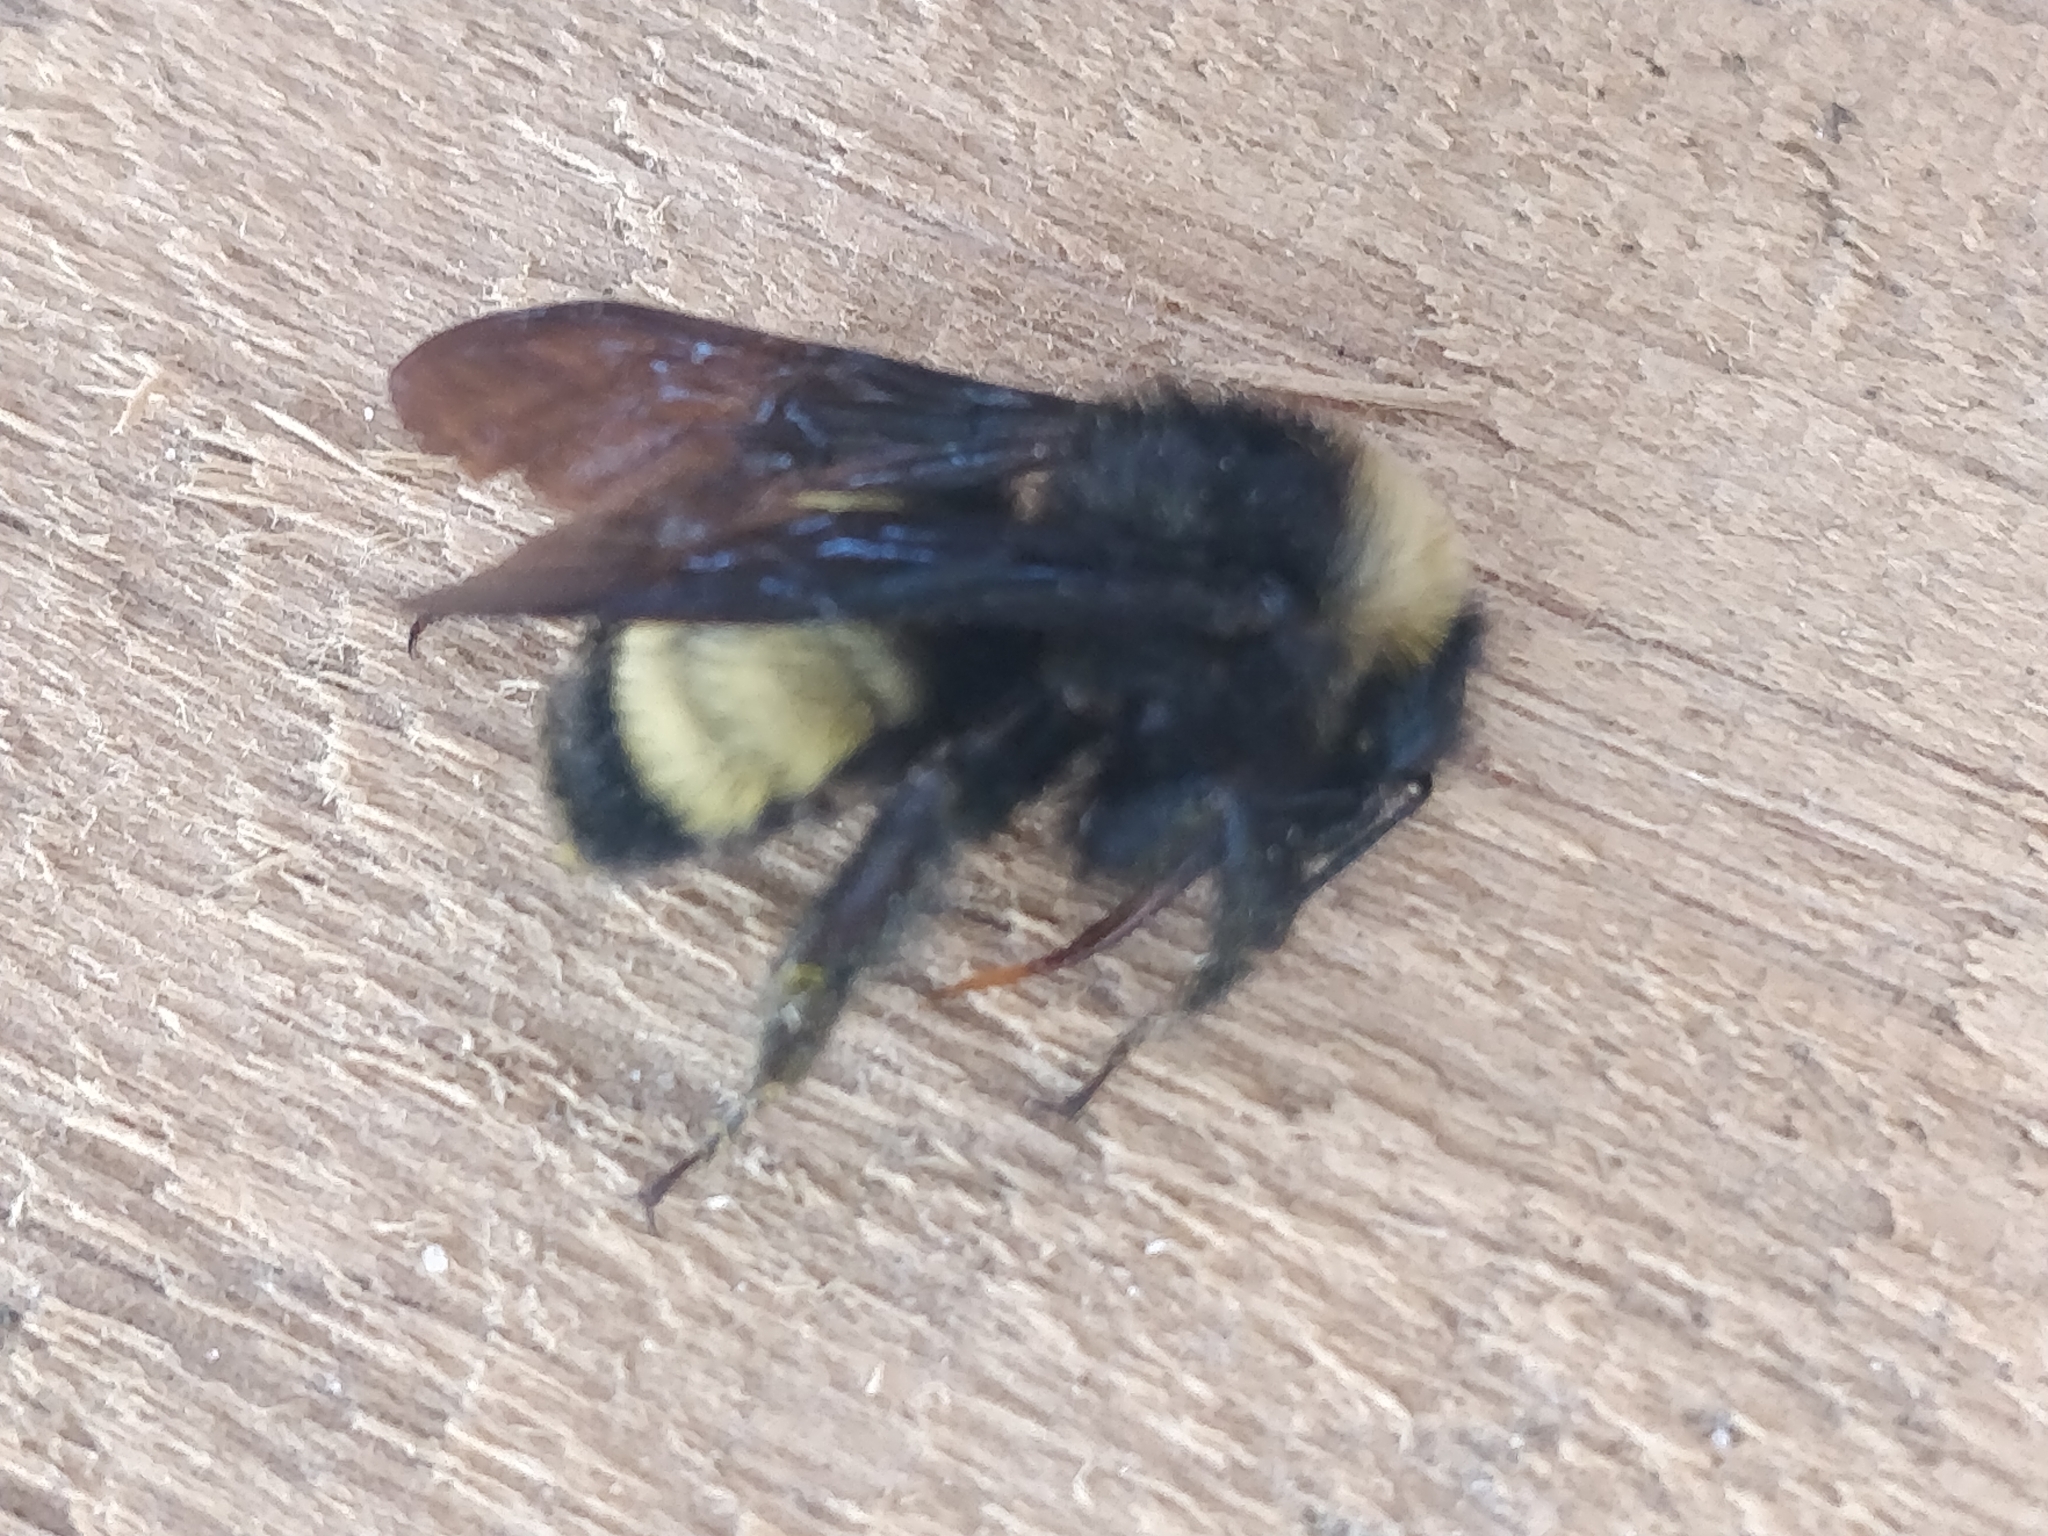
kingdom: Animalia
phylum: Arthropoda
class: Insecta
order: Hymenoptera
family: Apidae
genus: Bombus
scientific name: Bombus pensylvanicus
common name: Bumble bee
